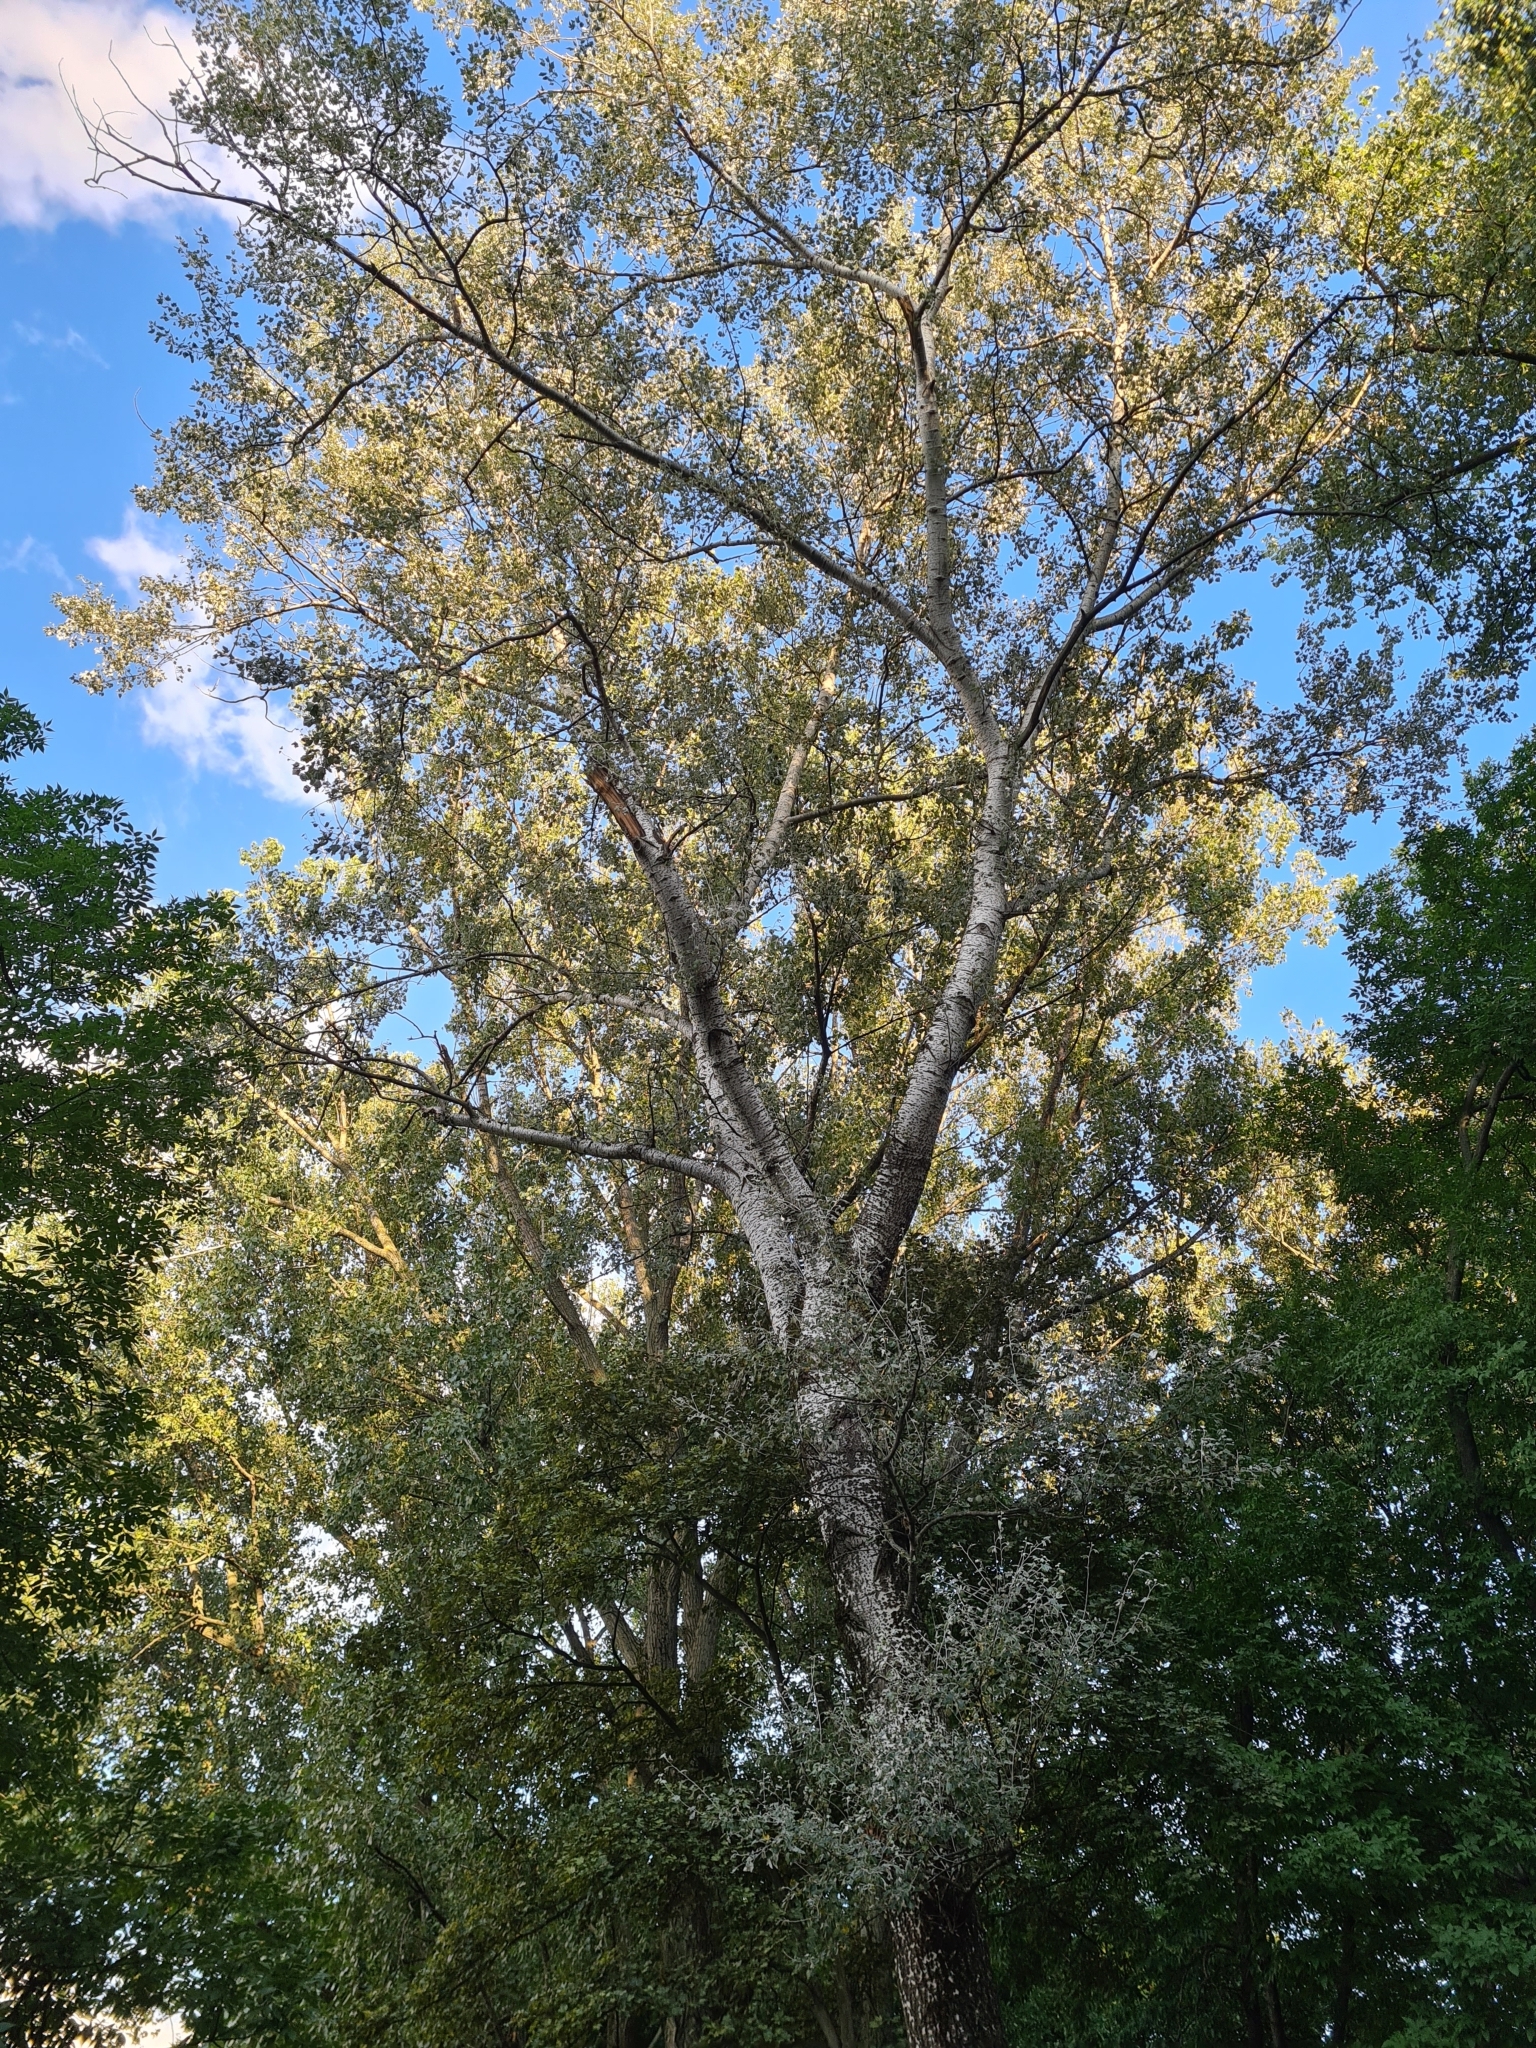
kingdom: Plantae
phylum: Tracheophyta
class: Magnoliopsida
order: Malpighiales
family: Salicaceae
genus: Populus
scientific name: Populus alba
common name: White poplar
